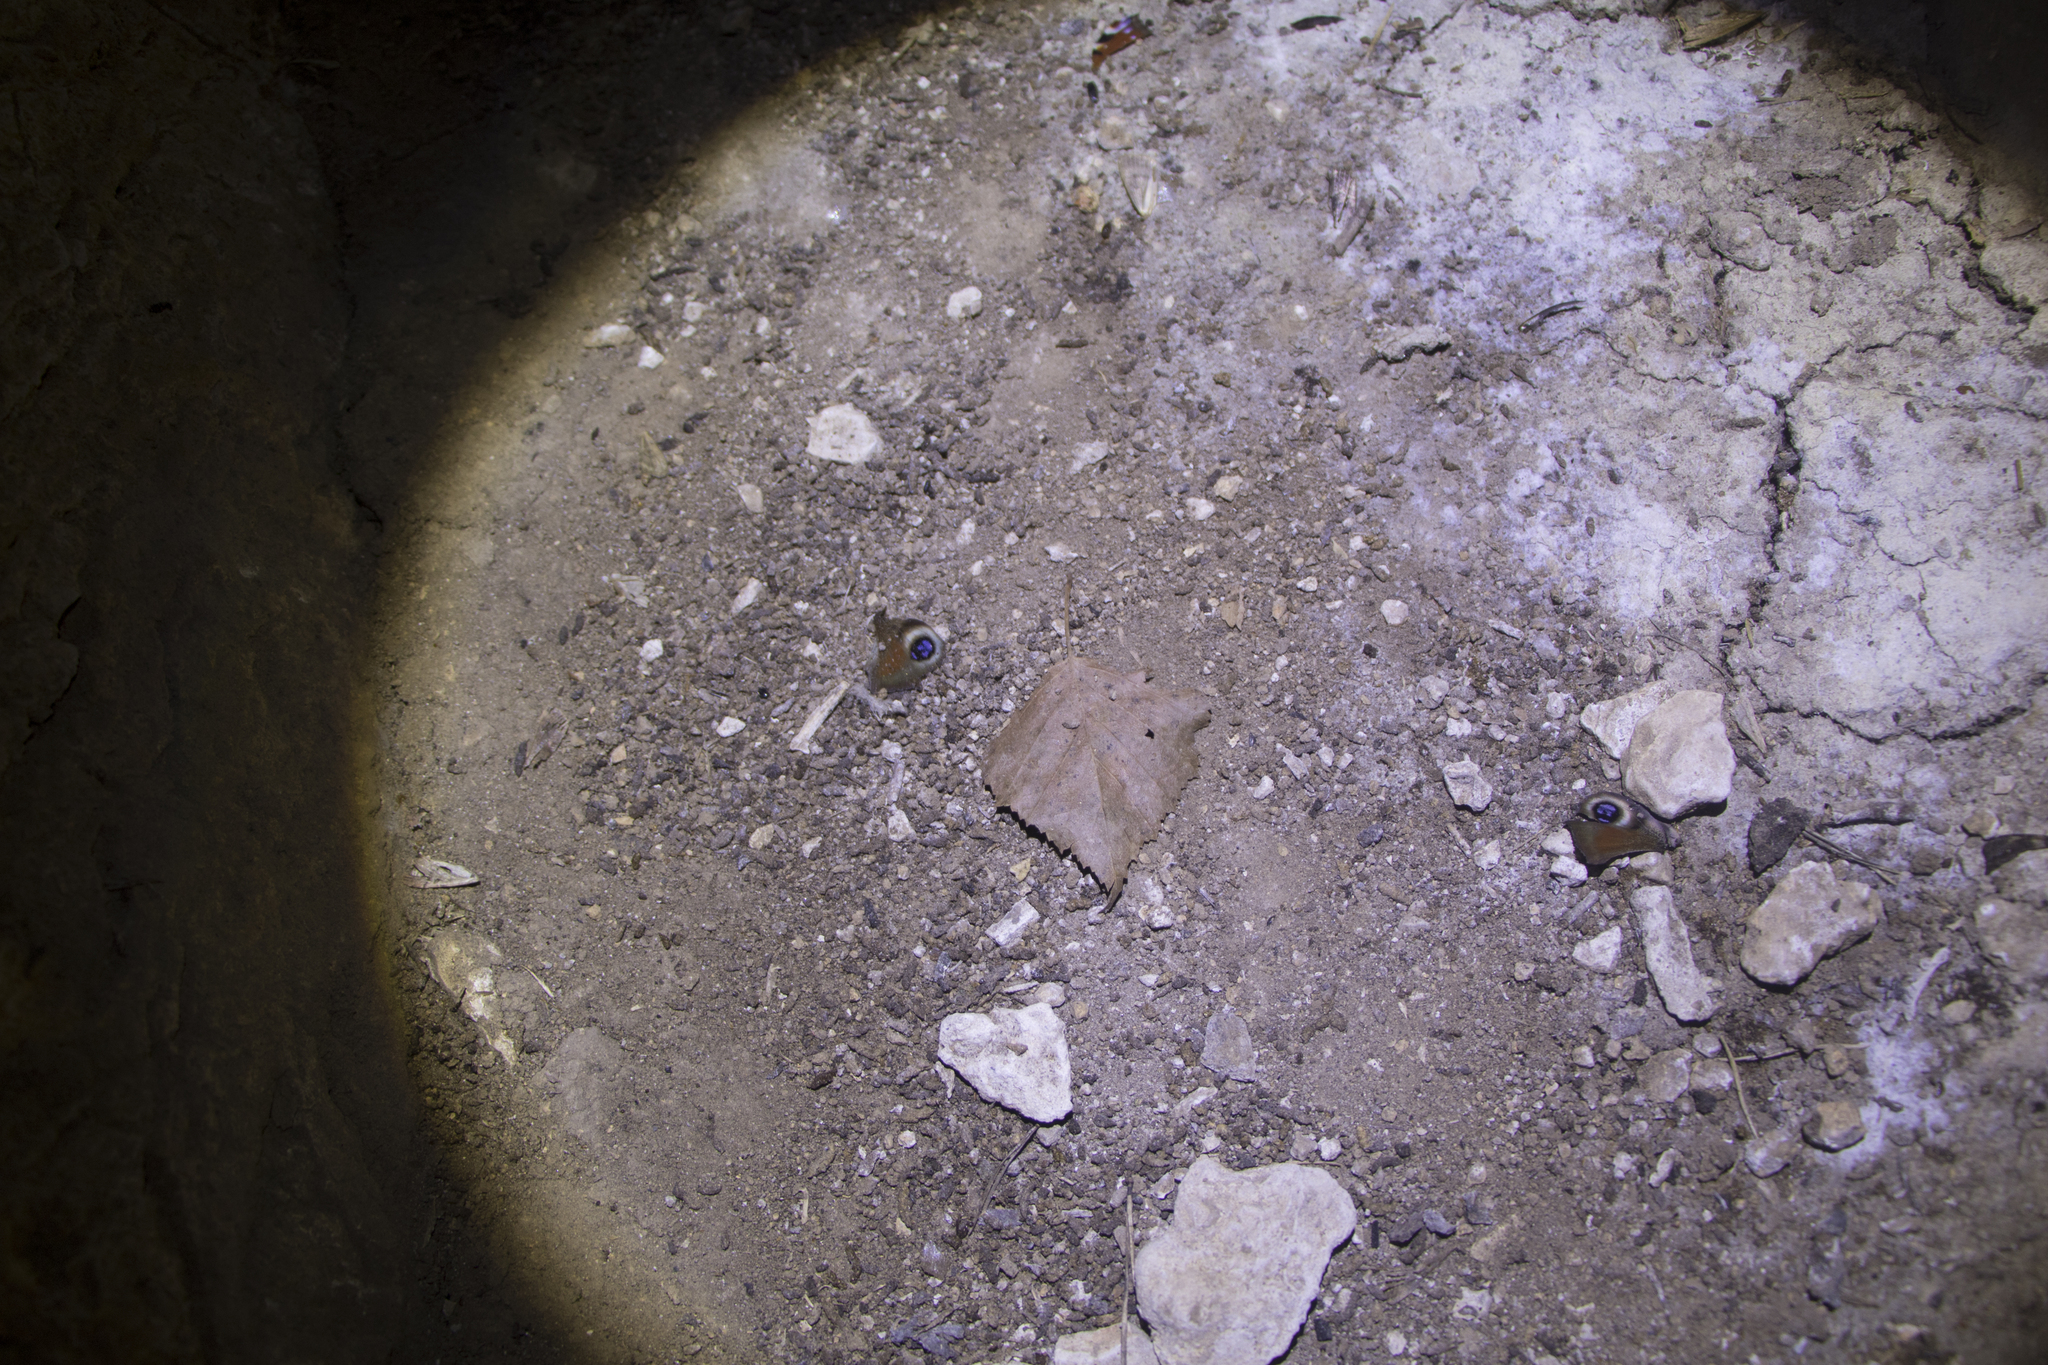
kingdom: Animalia
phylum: Arthropoda
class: Insecta
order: Lepidoptera
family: Nymphalidae
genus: Aglais
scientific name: Aglais io
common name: Peacock
